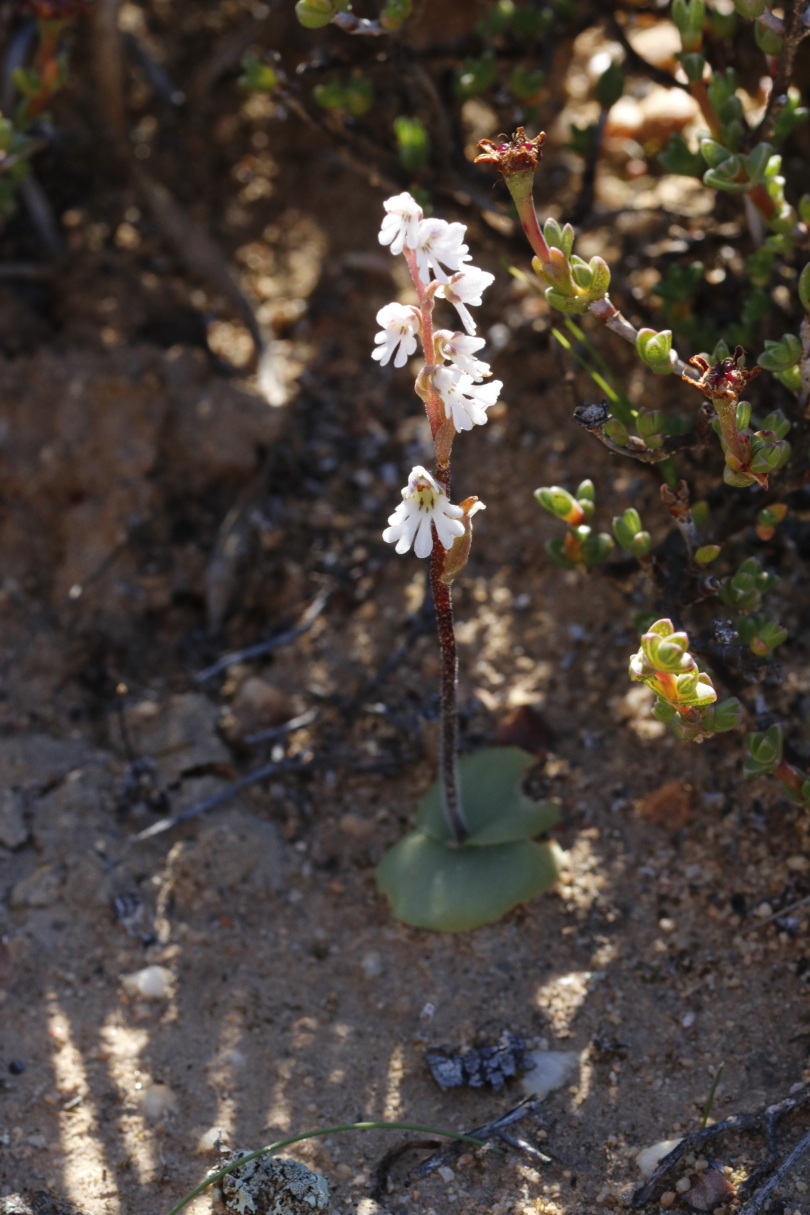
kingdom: Plantae
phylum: Tracheophyta
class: Liliopsida
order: Asparagales
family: Orchidaceae
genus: Holothrix
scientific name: Holothrix aspera
